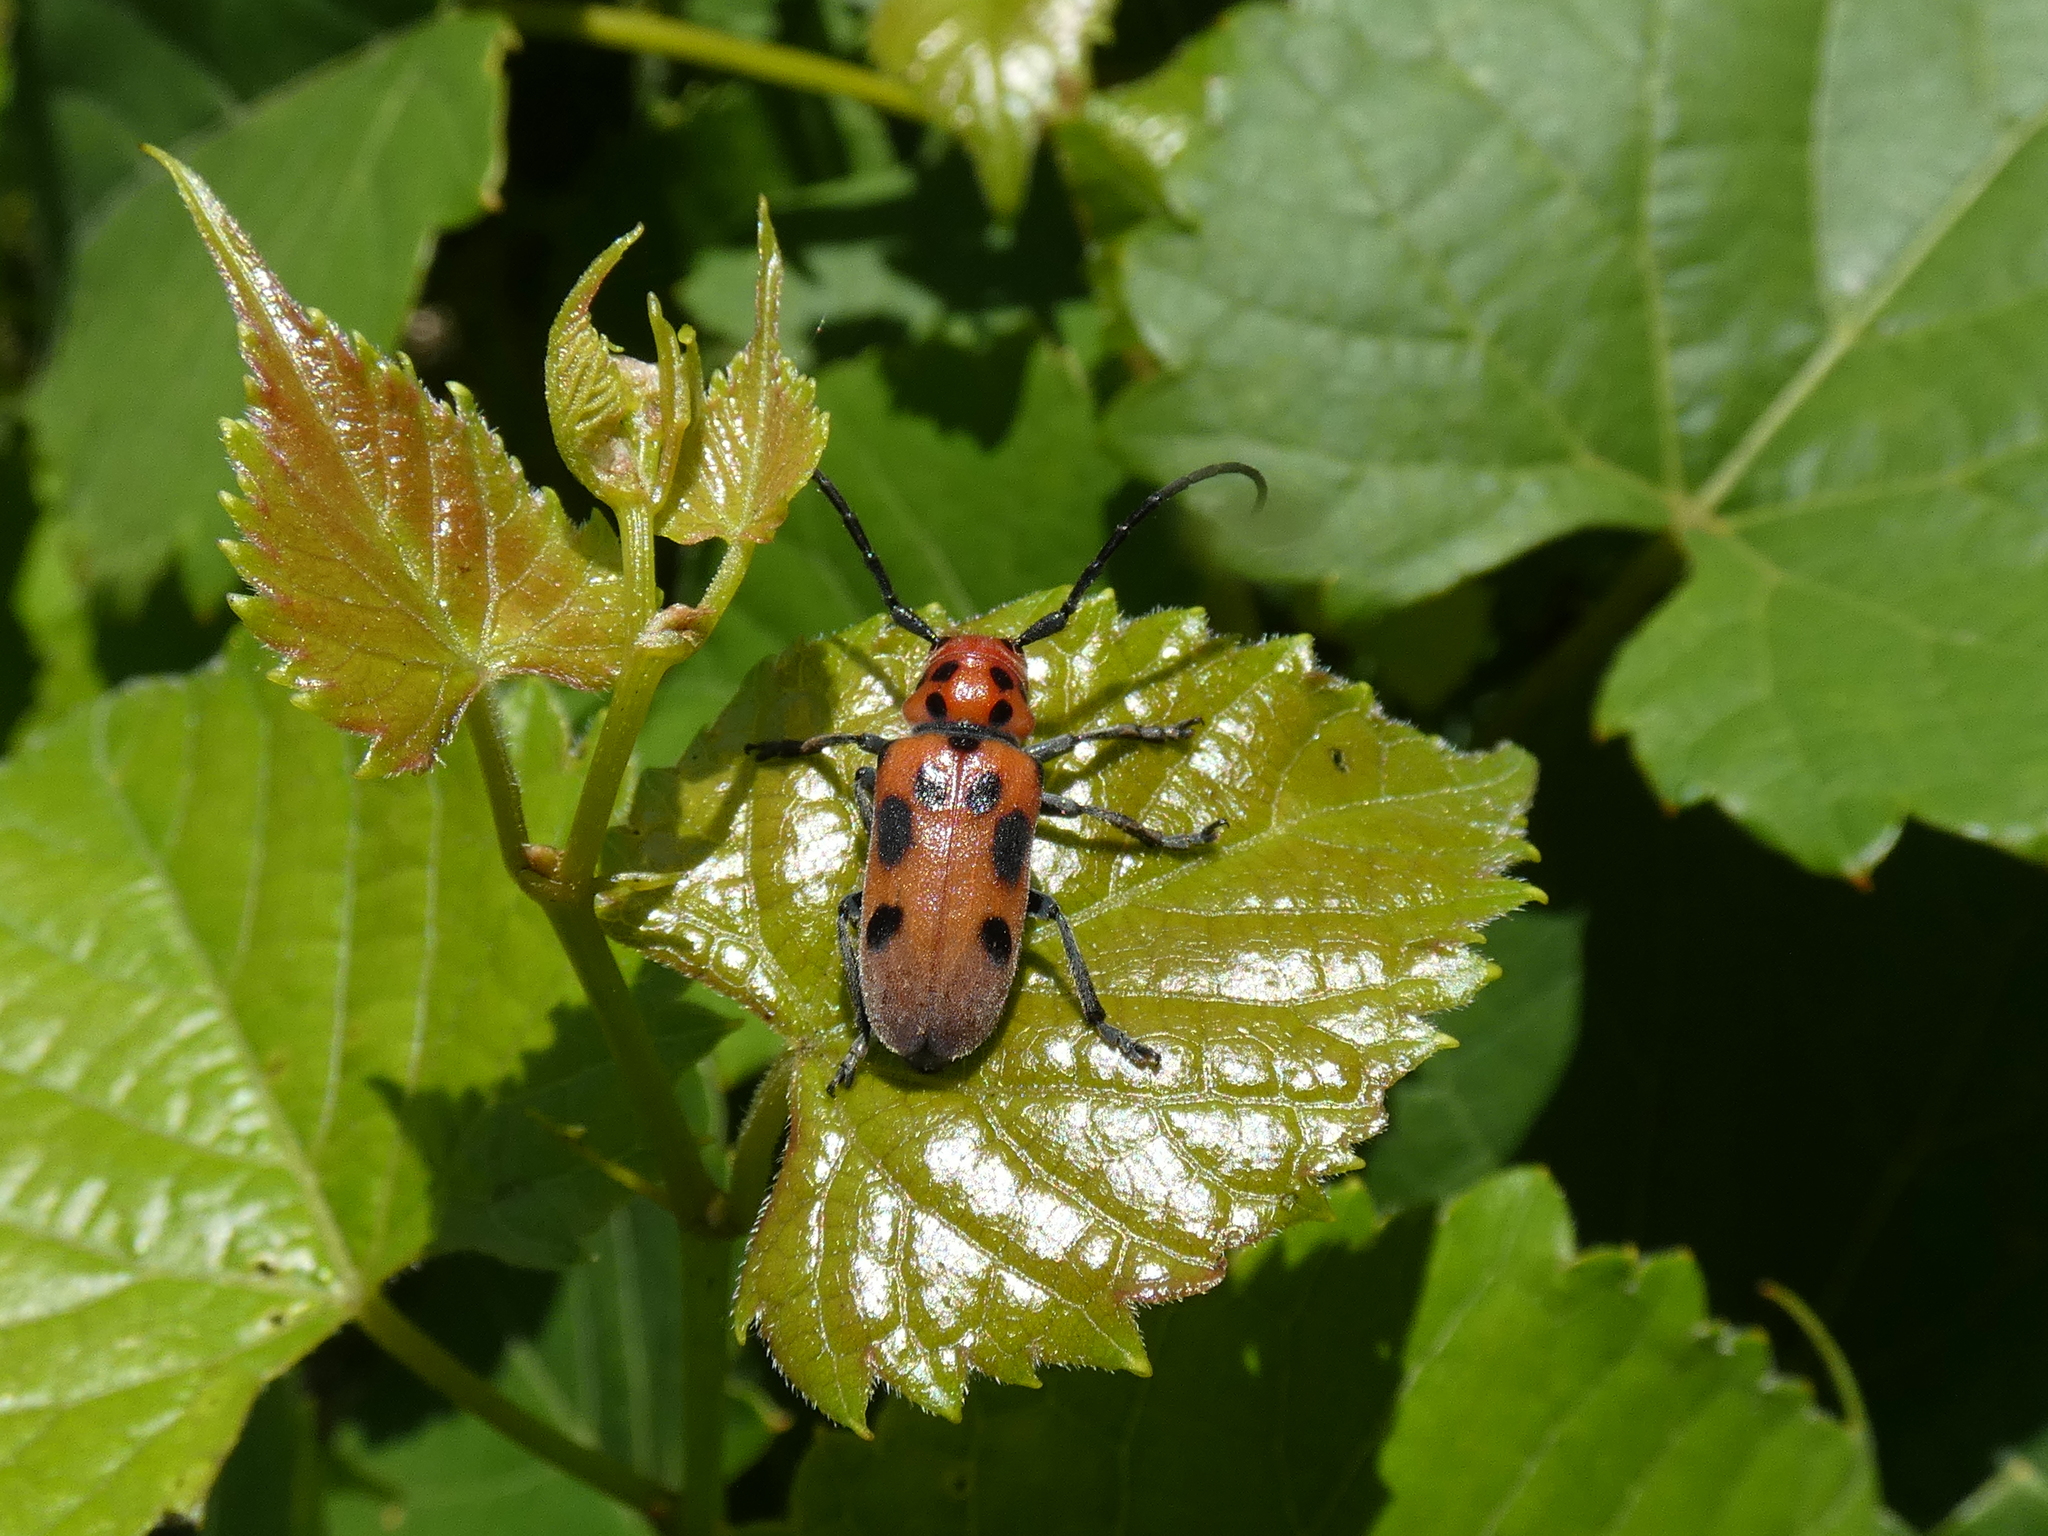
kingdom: Animalia
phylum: Arthropoda
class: Insecta
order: Coleoptera
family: Cerambycidae
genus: Tetraopes
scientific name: Tetraopes tetrophthalmus
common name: Red milkweed beetle
